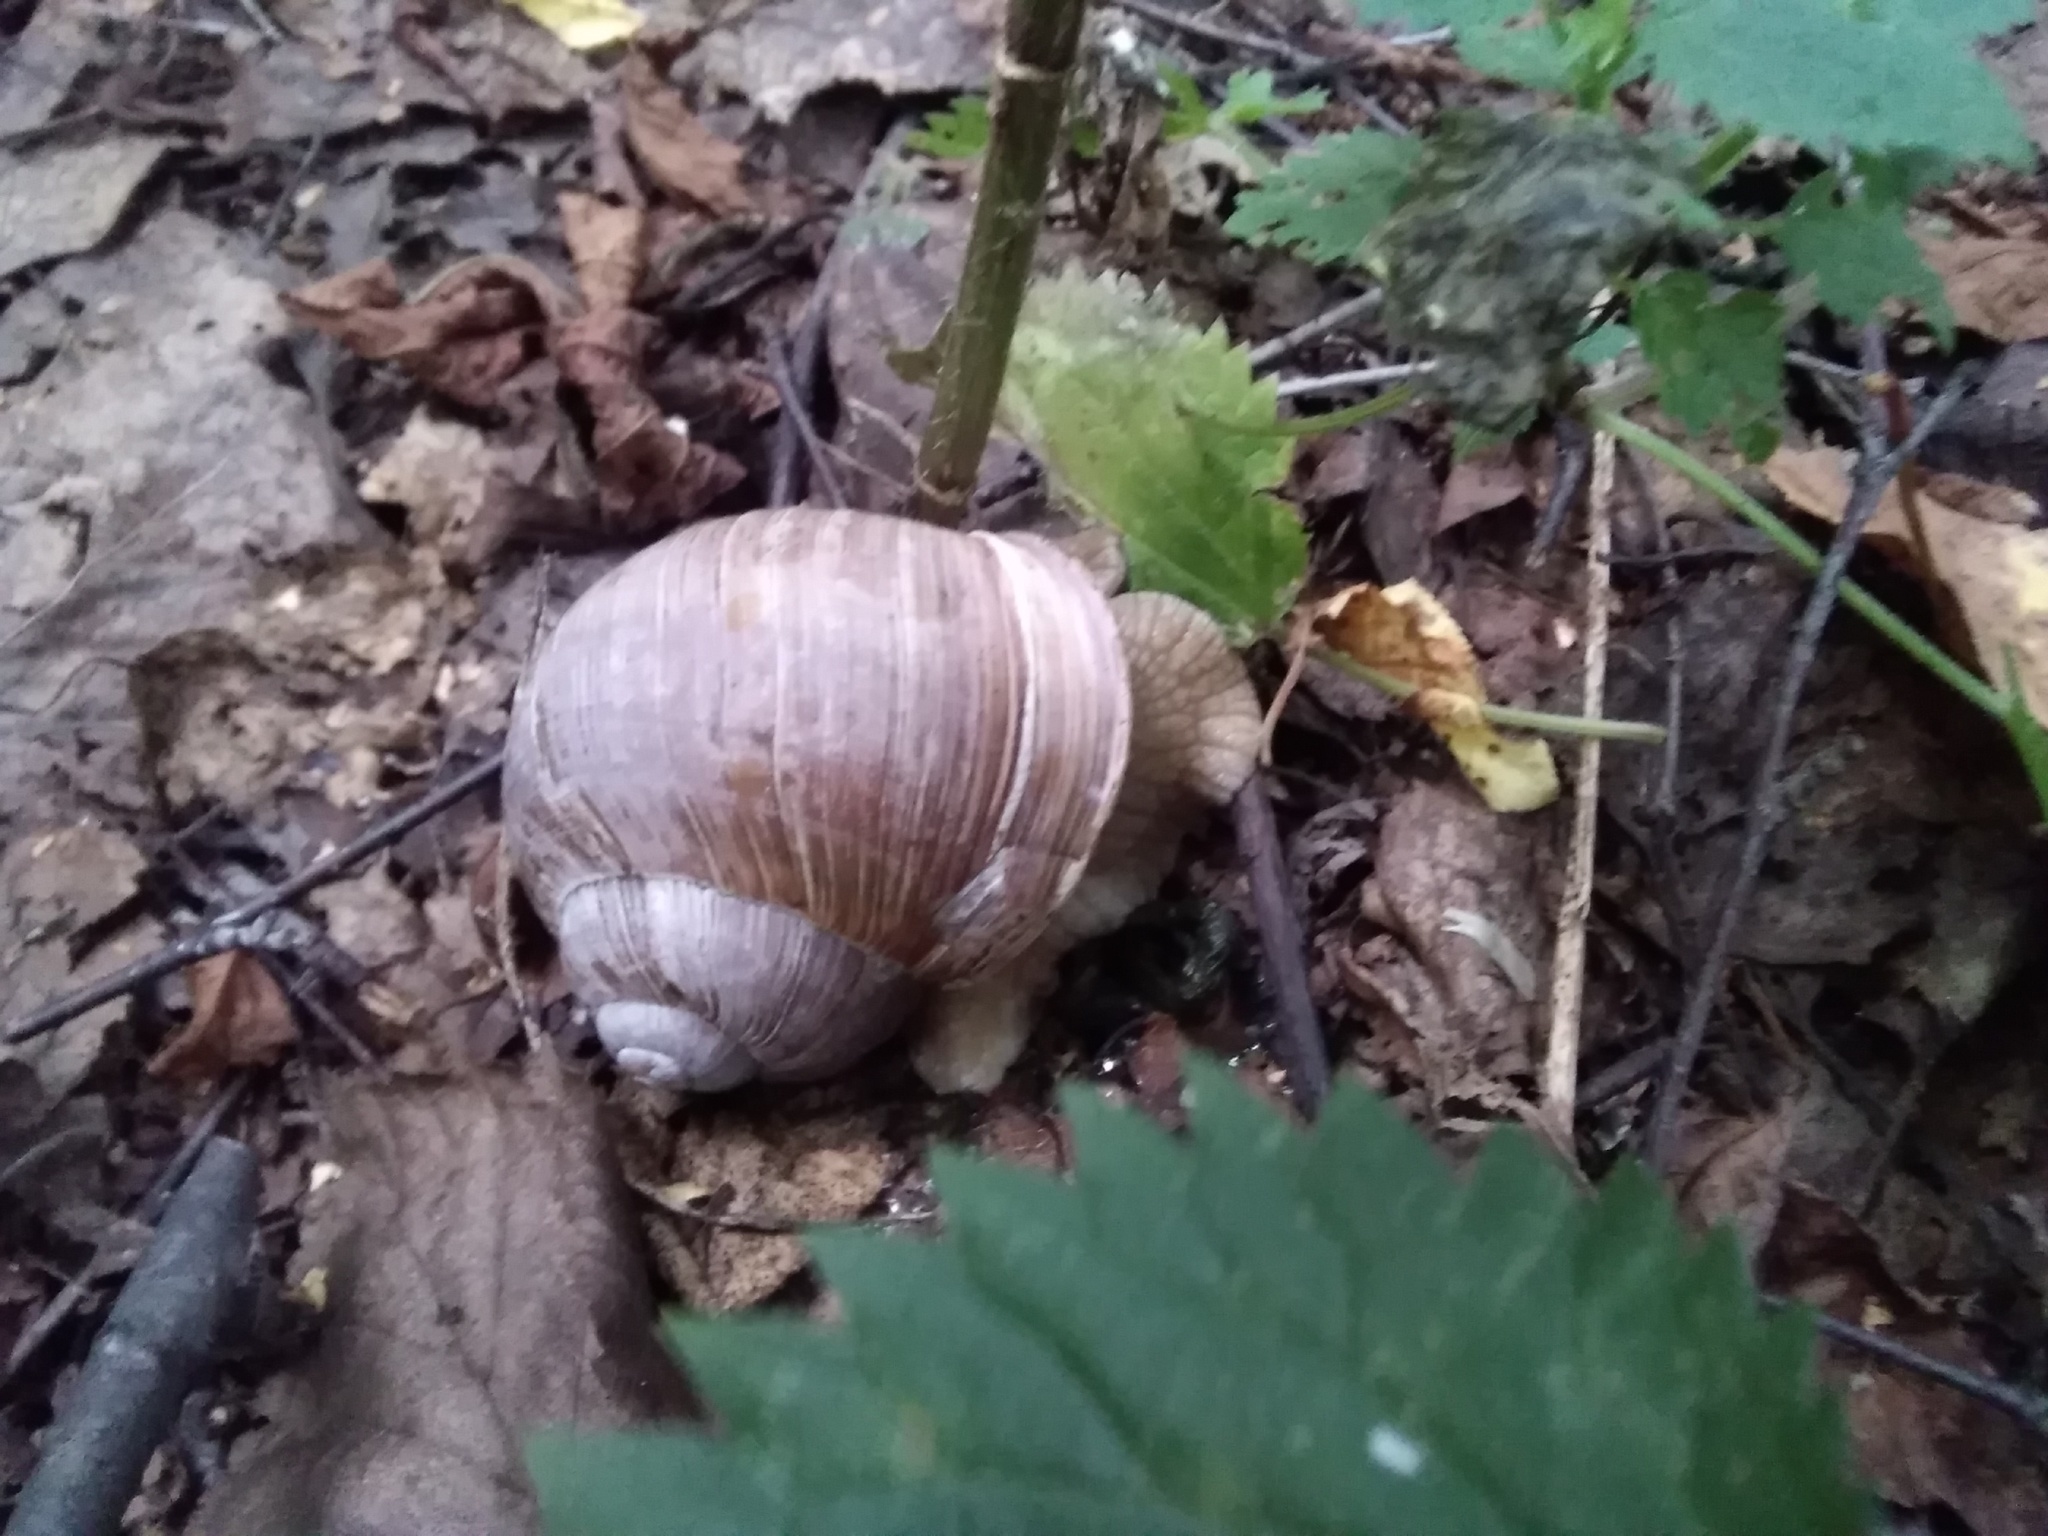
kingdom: Animalia
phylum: Mollusca
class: Gastropoda
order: Stylommatophora
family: Helicidae
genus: Helix
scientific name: Helix pomatia
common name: Roman snail
